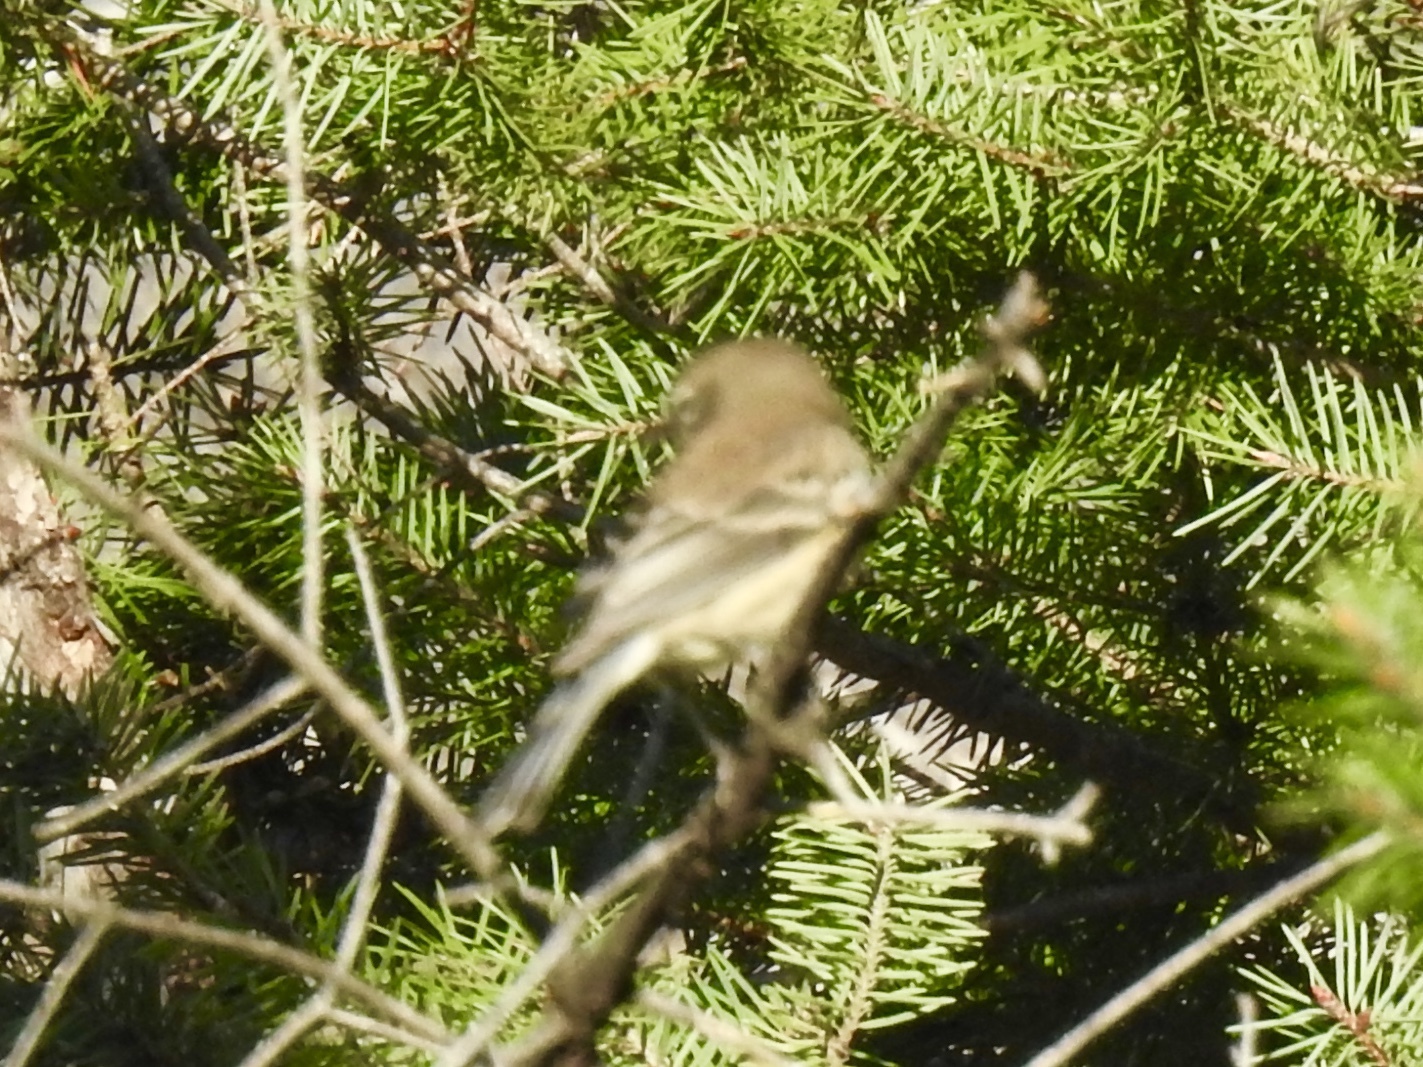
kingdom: Animalia
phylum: Chordata
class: Aves
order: Passeriformes
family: Parulidae
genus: Setophaga
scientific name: Setophaga coronata
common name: Myrtle warbler
